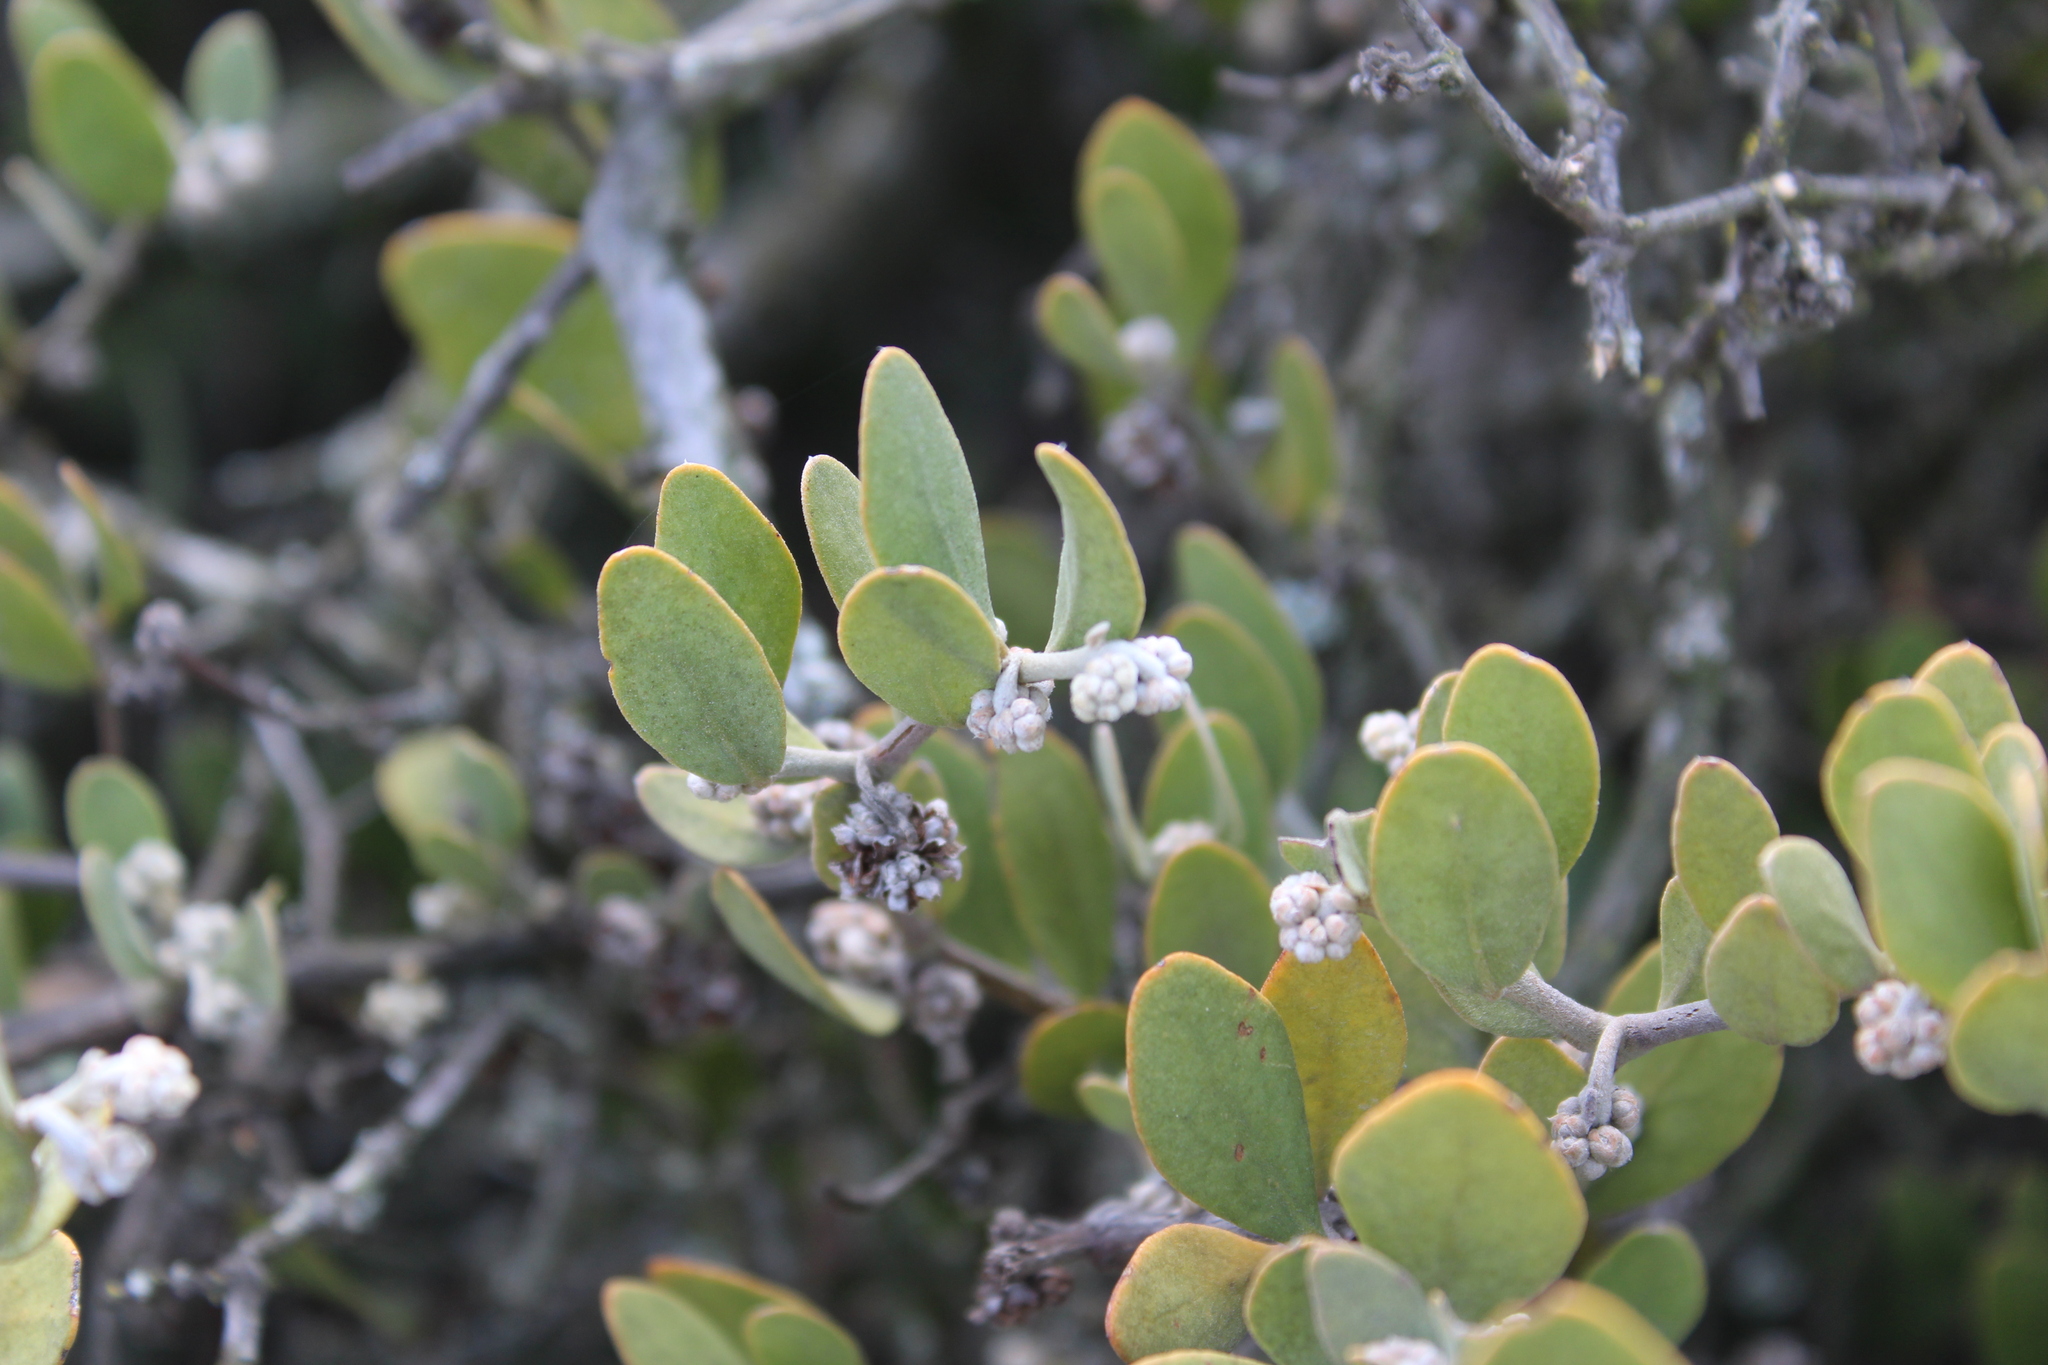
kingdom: Plantae
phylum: Tracheophyta
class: Magnoliopsida
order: Caryophyllales
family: Simmondsiaceae
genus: Simmondsia
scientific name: Simmondsia chinensis
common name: Jojoba
